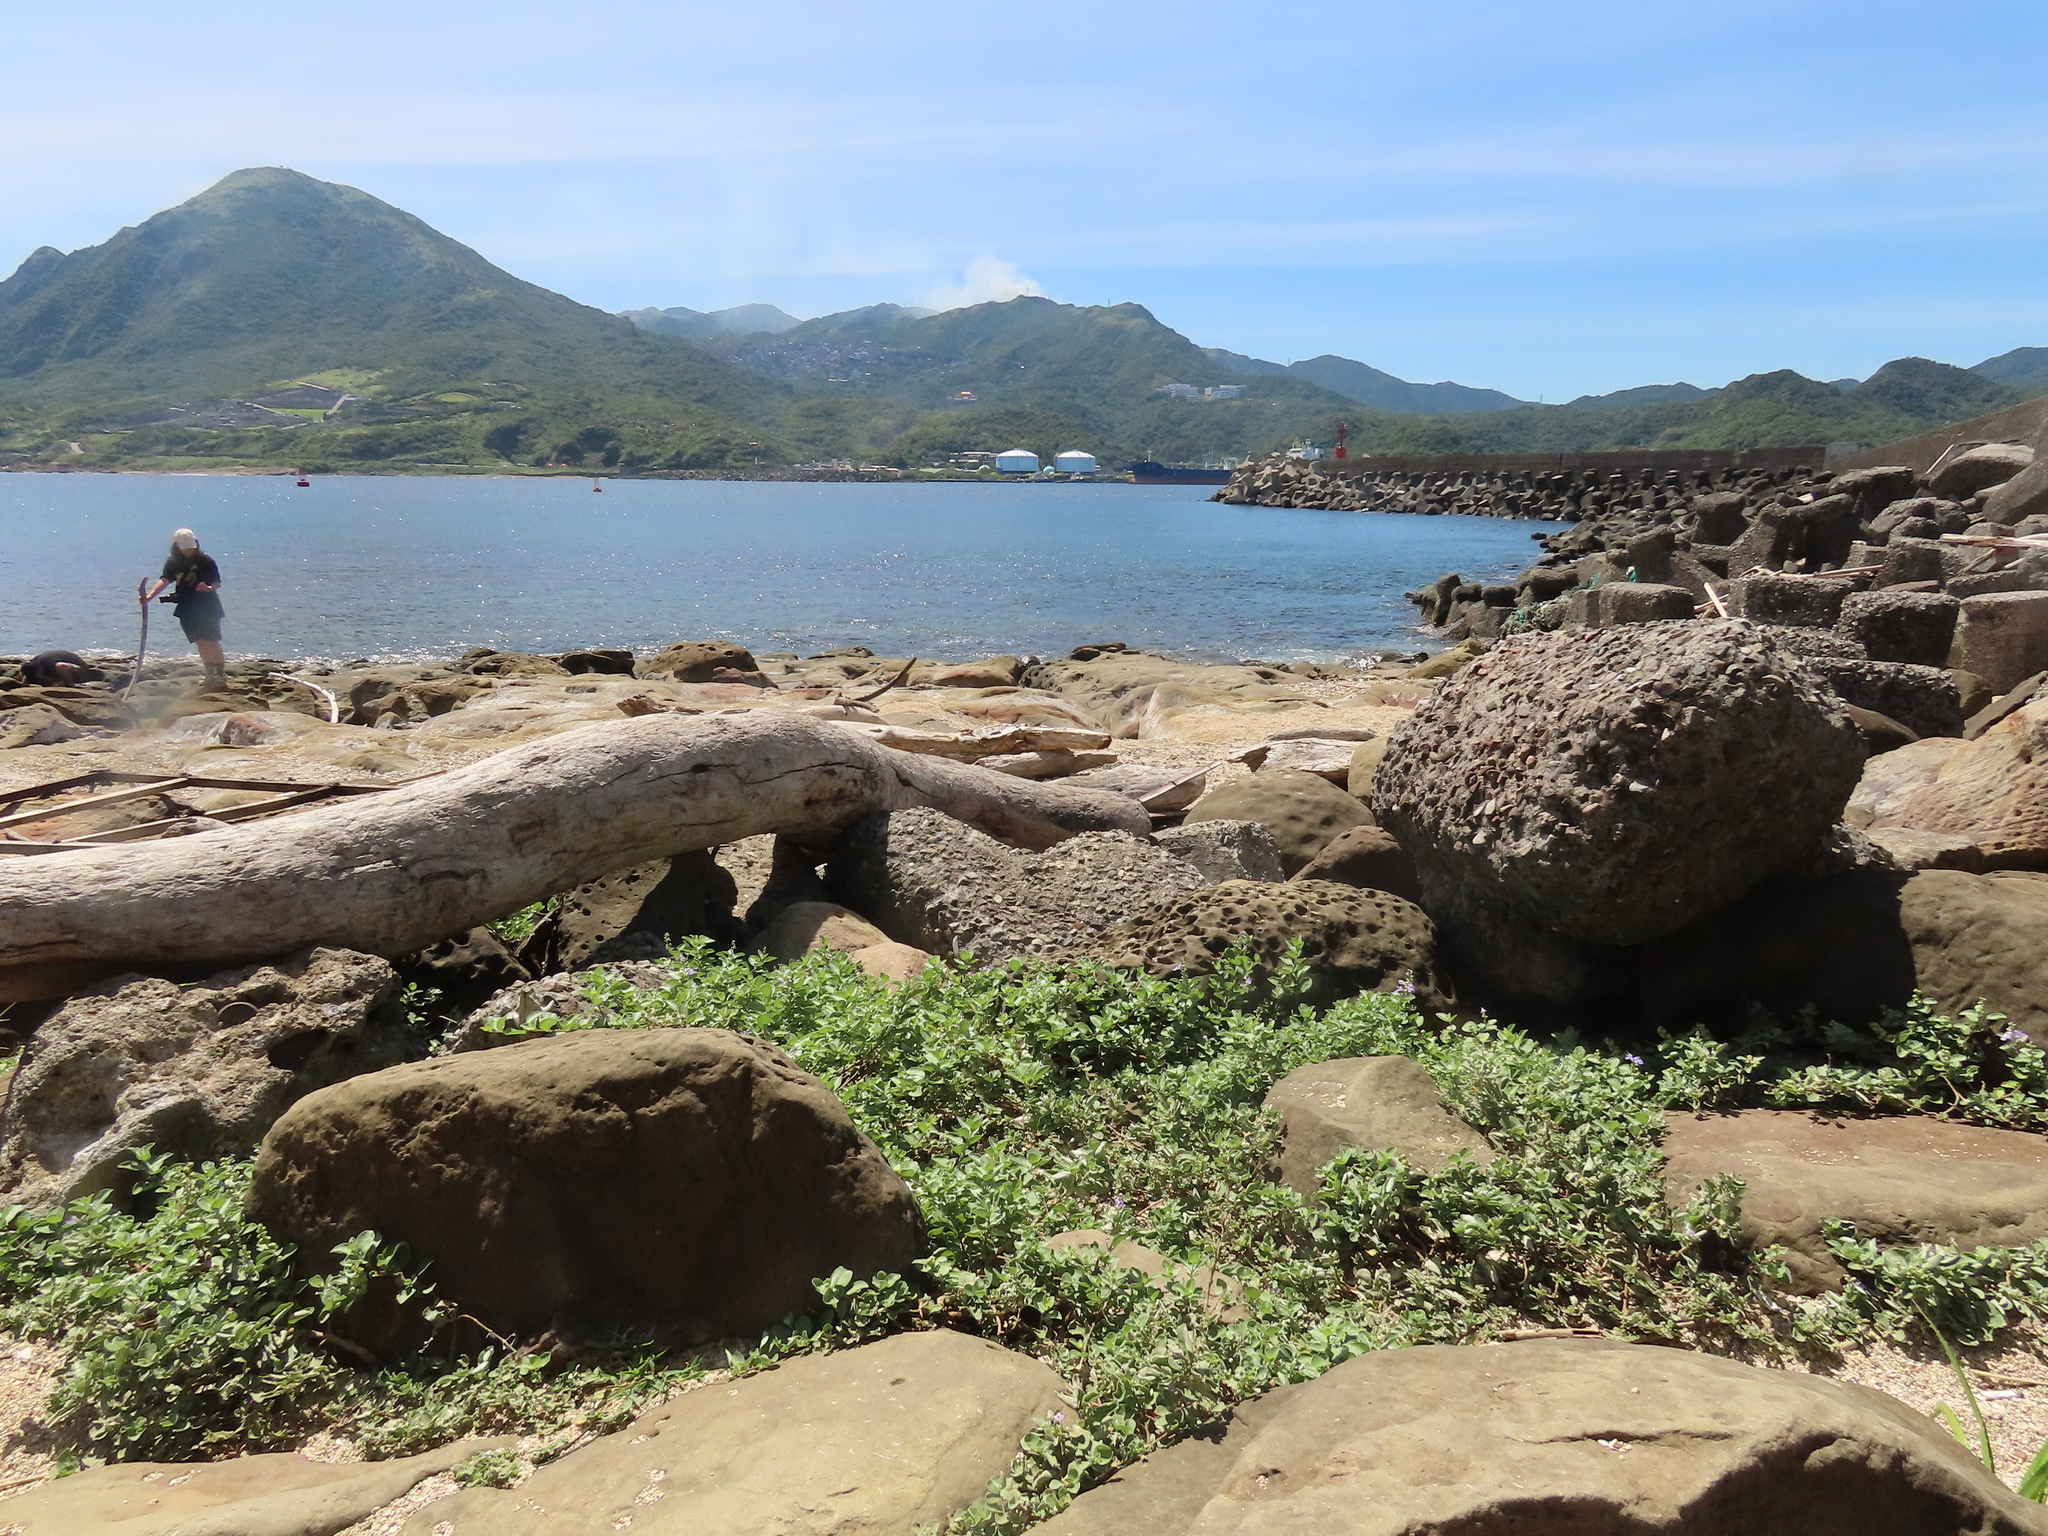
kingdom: Plantae
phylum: Tracheophyta
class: Magnoliopsida
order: Lamiales
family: Lamiaceae
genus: Vitex
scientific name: Vitex rotundifolia
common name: Beach vitex
